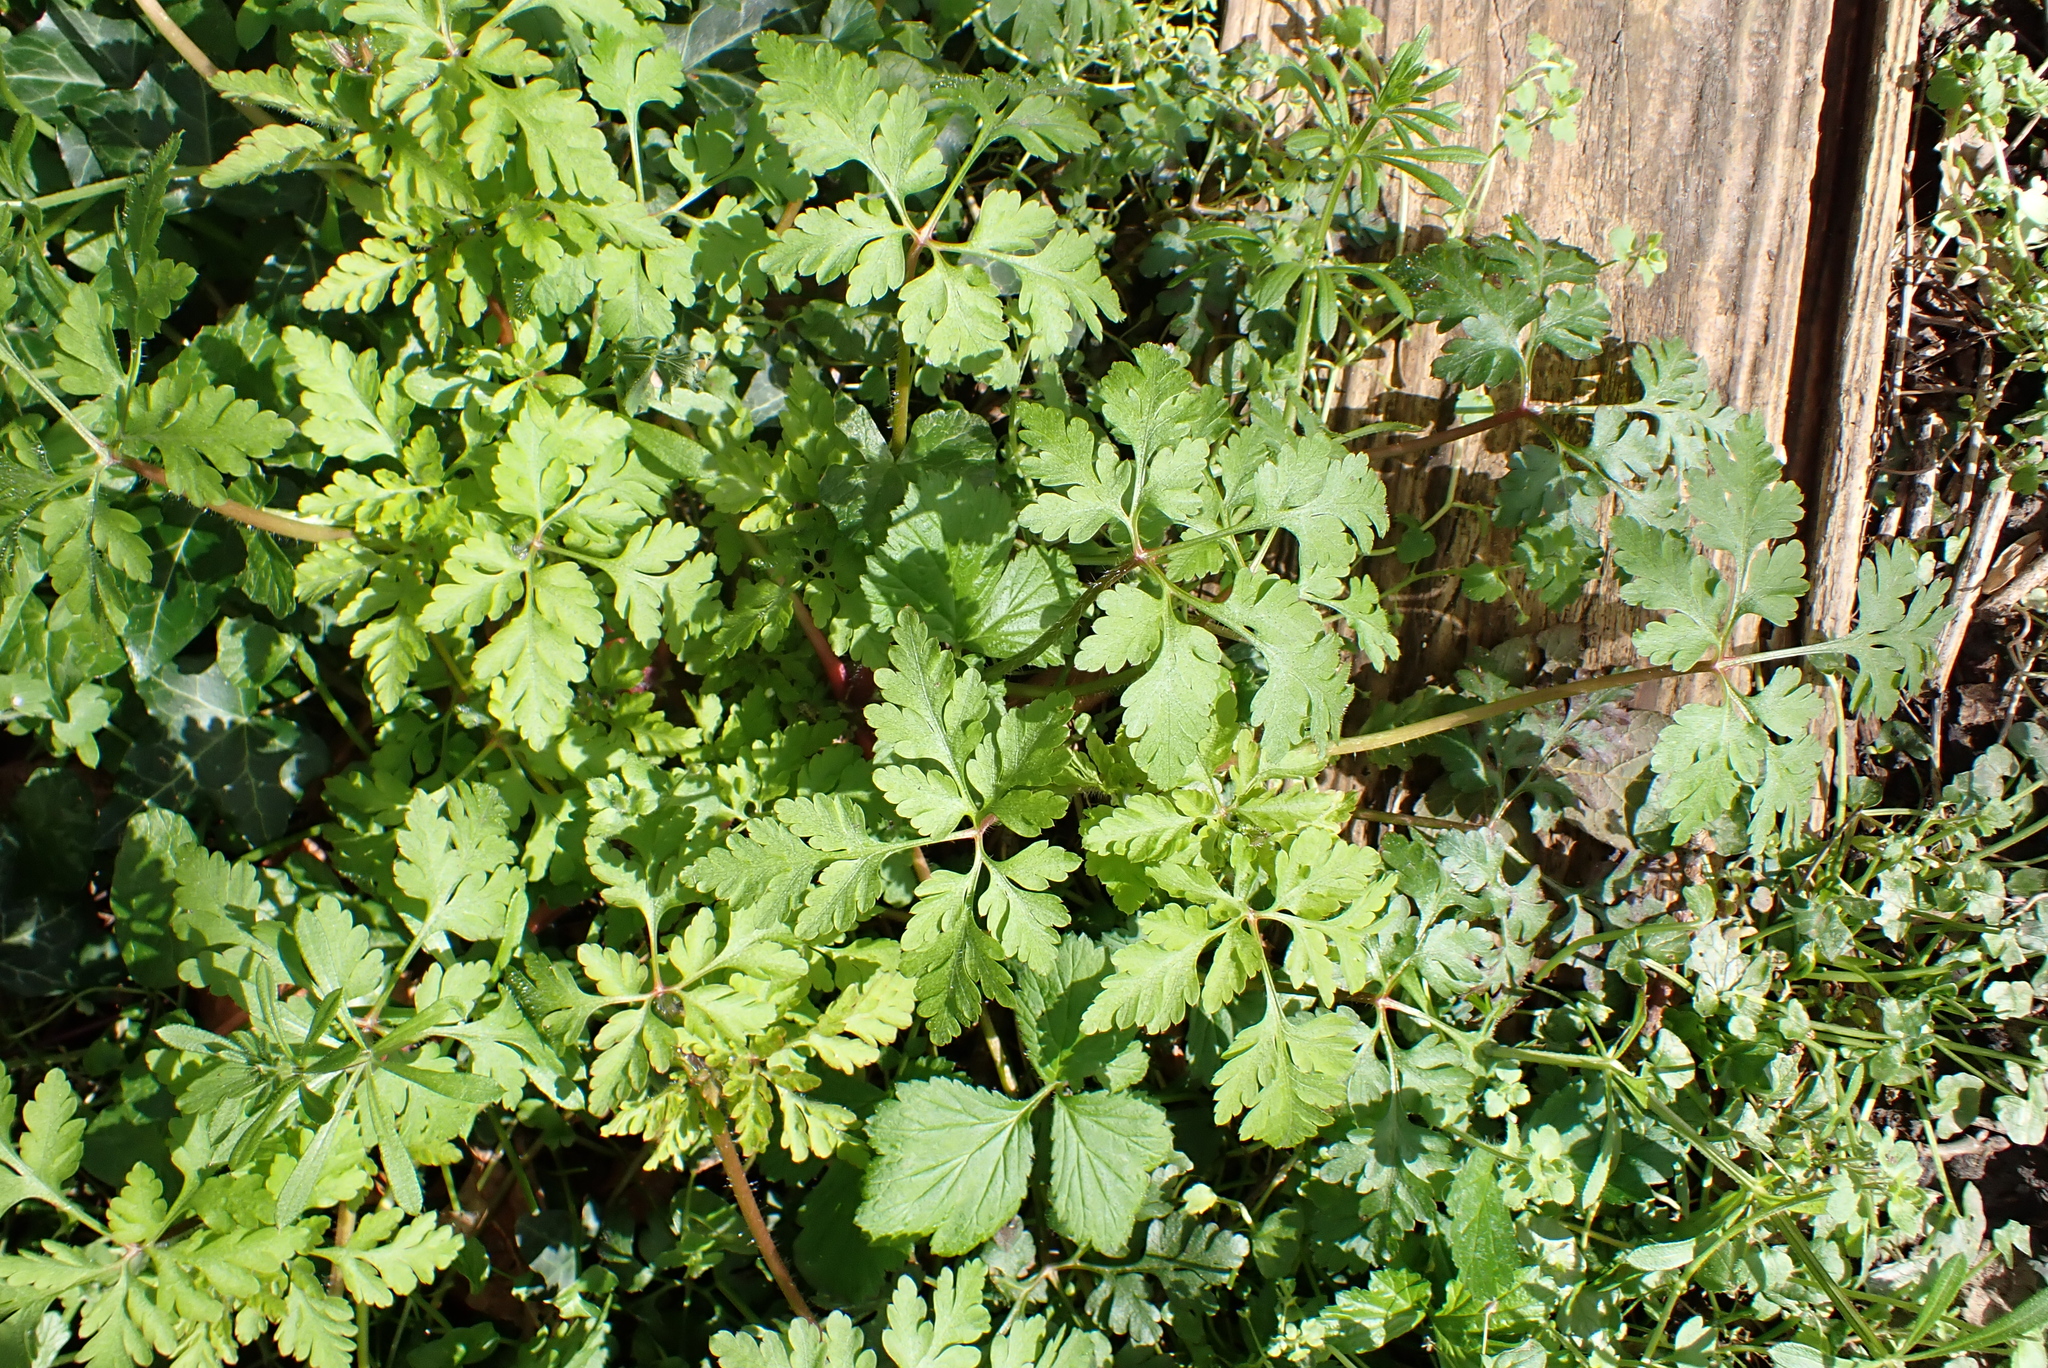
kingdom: Plantae
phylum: Tracheophyta
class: Magnoliopsida
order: Geraniales
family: Geraniaceae
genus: Geranium
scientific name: Geranium robertianum
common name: Herb-robert
